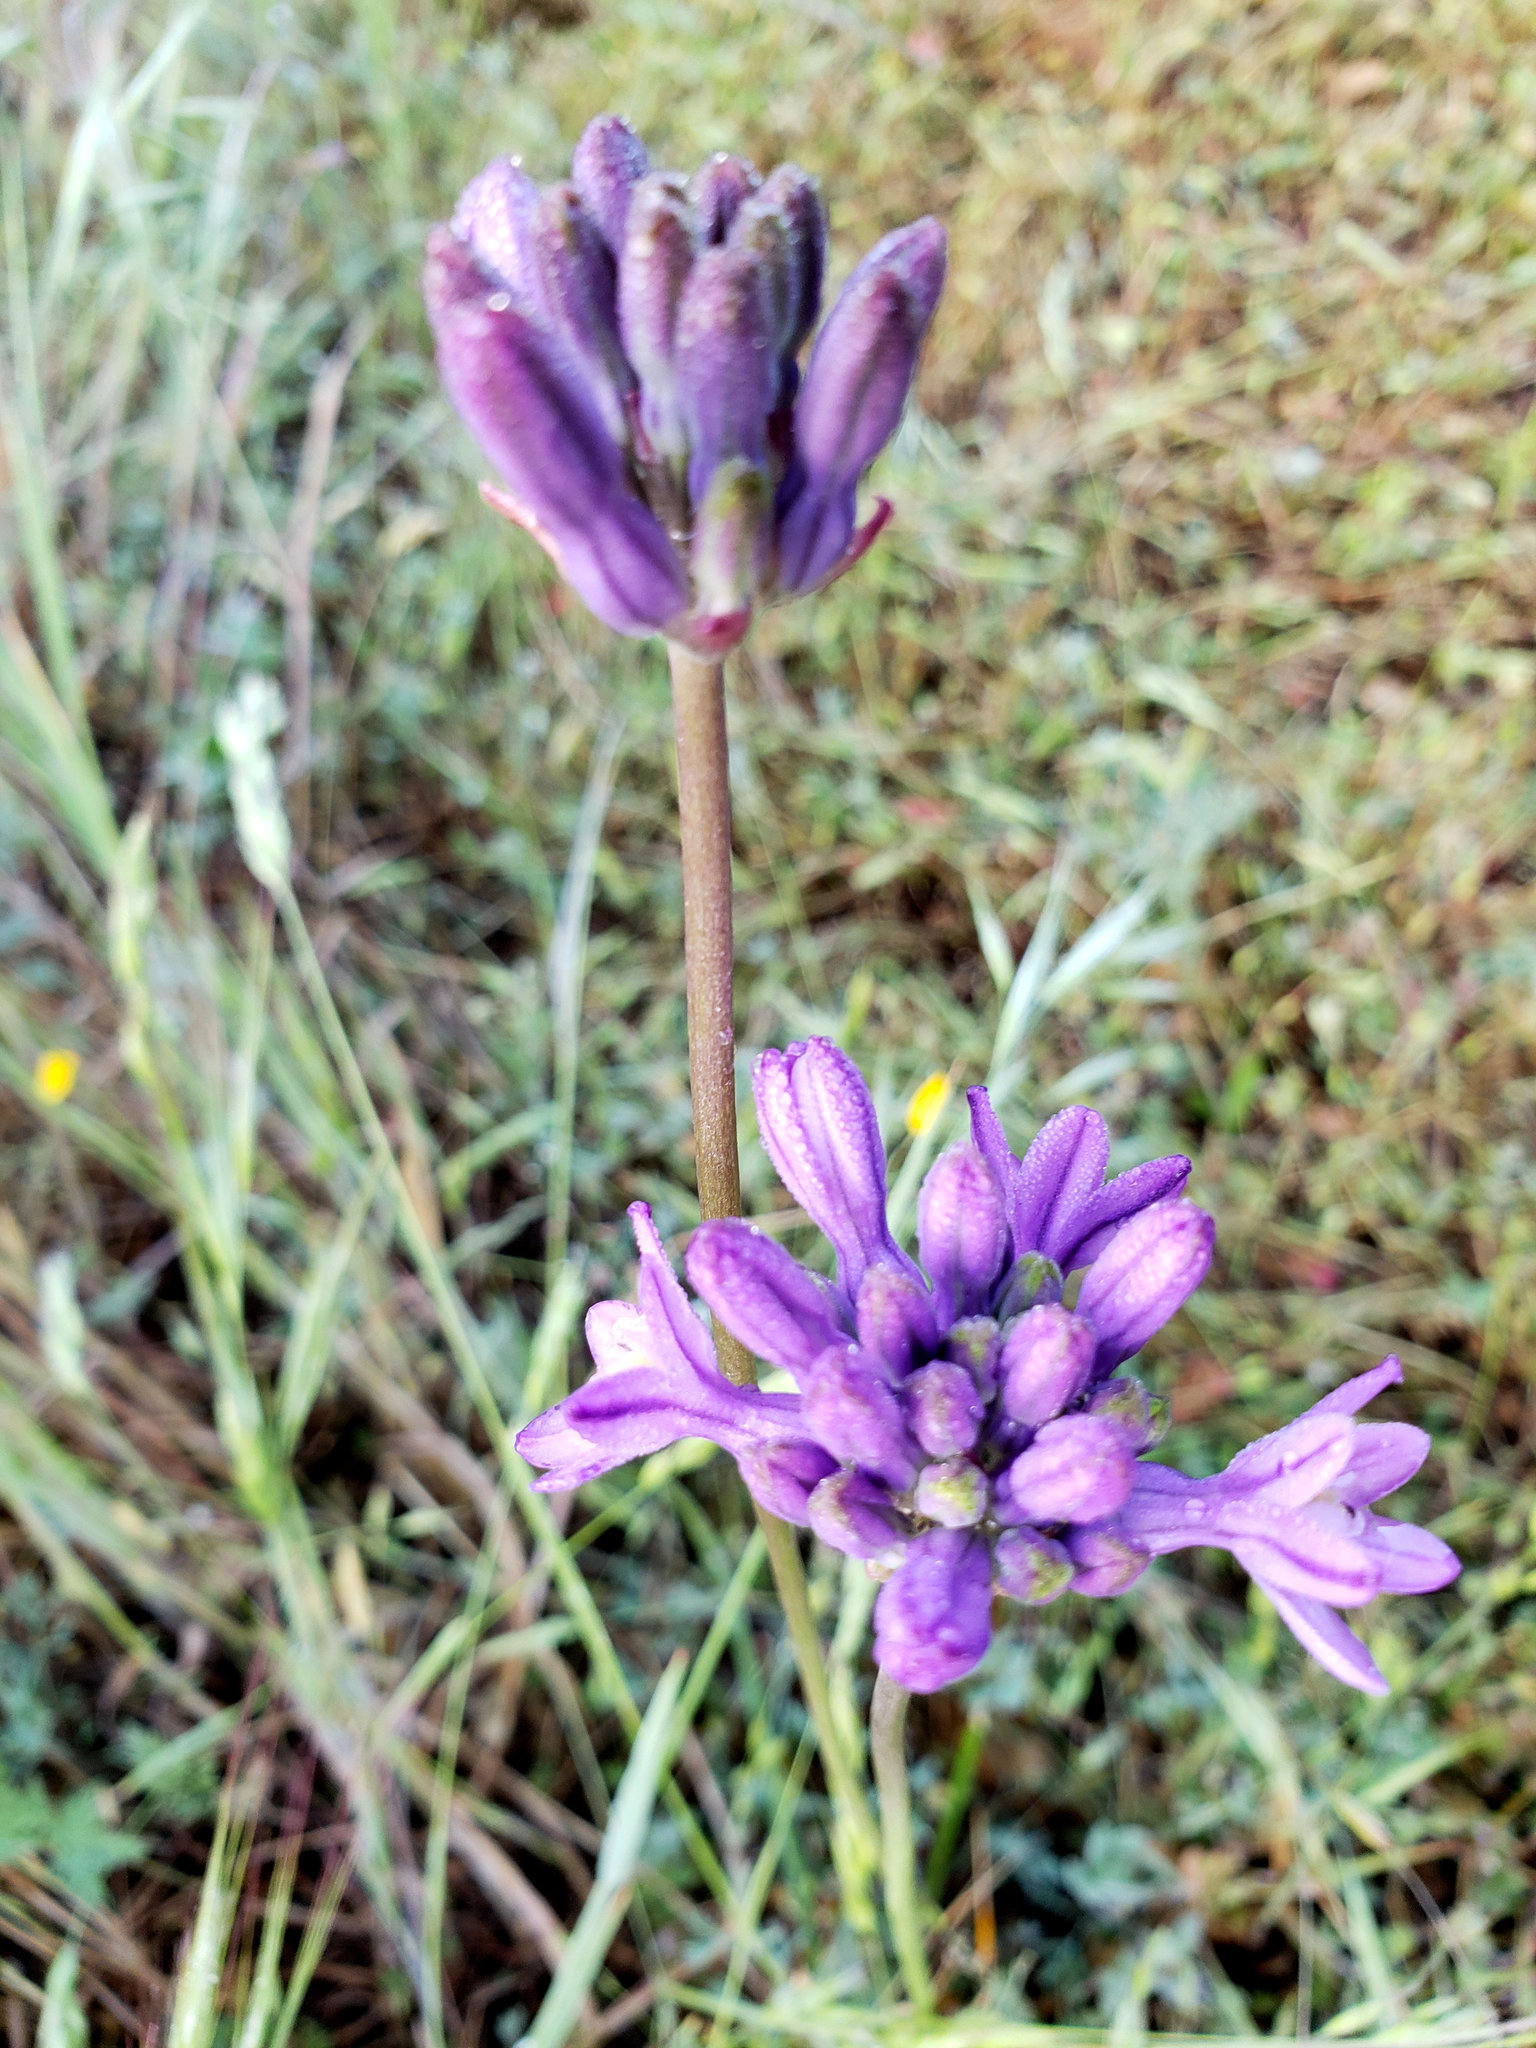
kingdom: Plantae
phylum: Tracheophyta
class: Liliopsida
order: Asparagales
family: Asparagaceae
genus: Dichelostemma
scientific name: Dichelostemma multiflorum
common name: Round-tooth ookow
